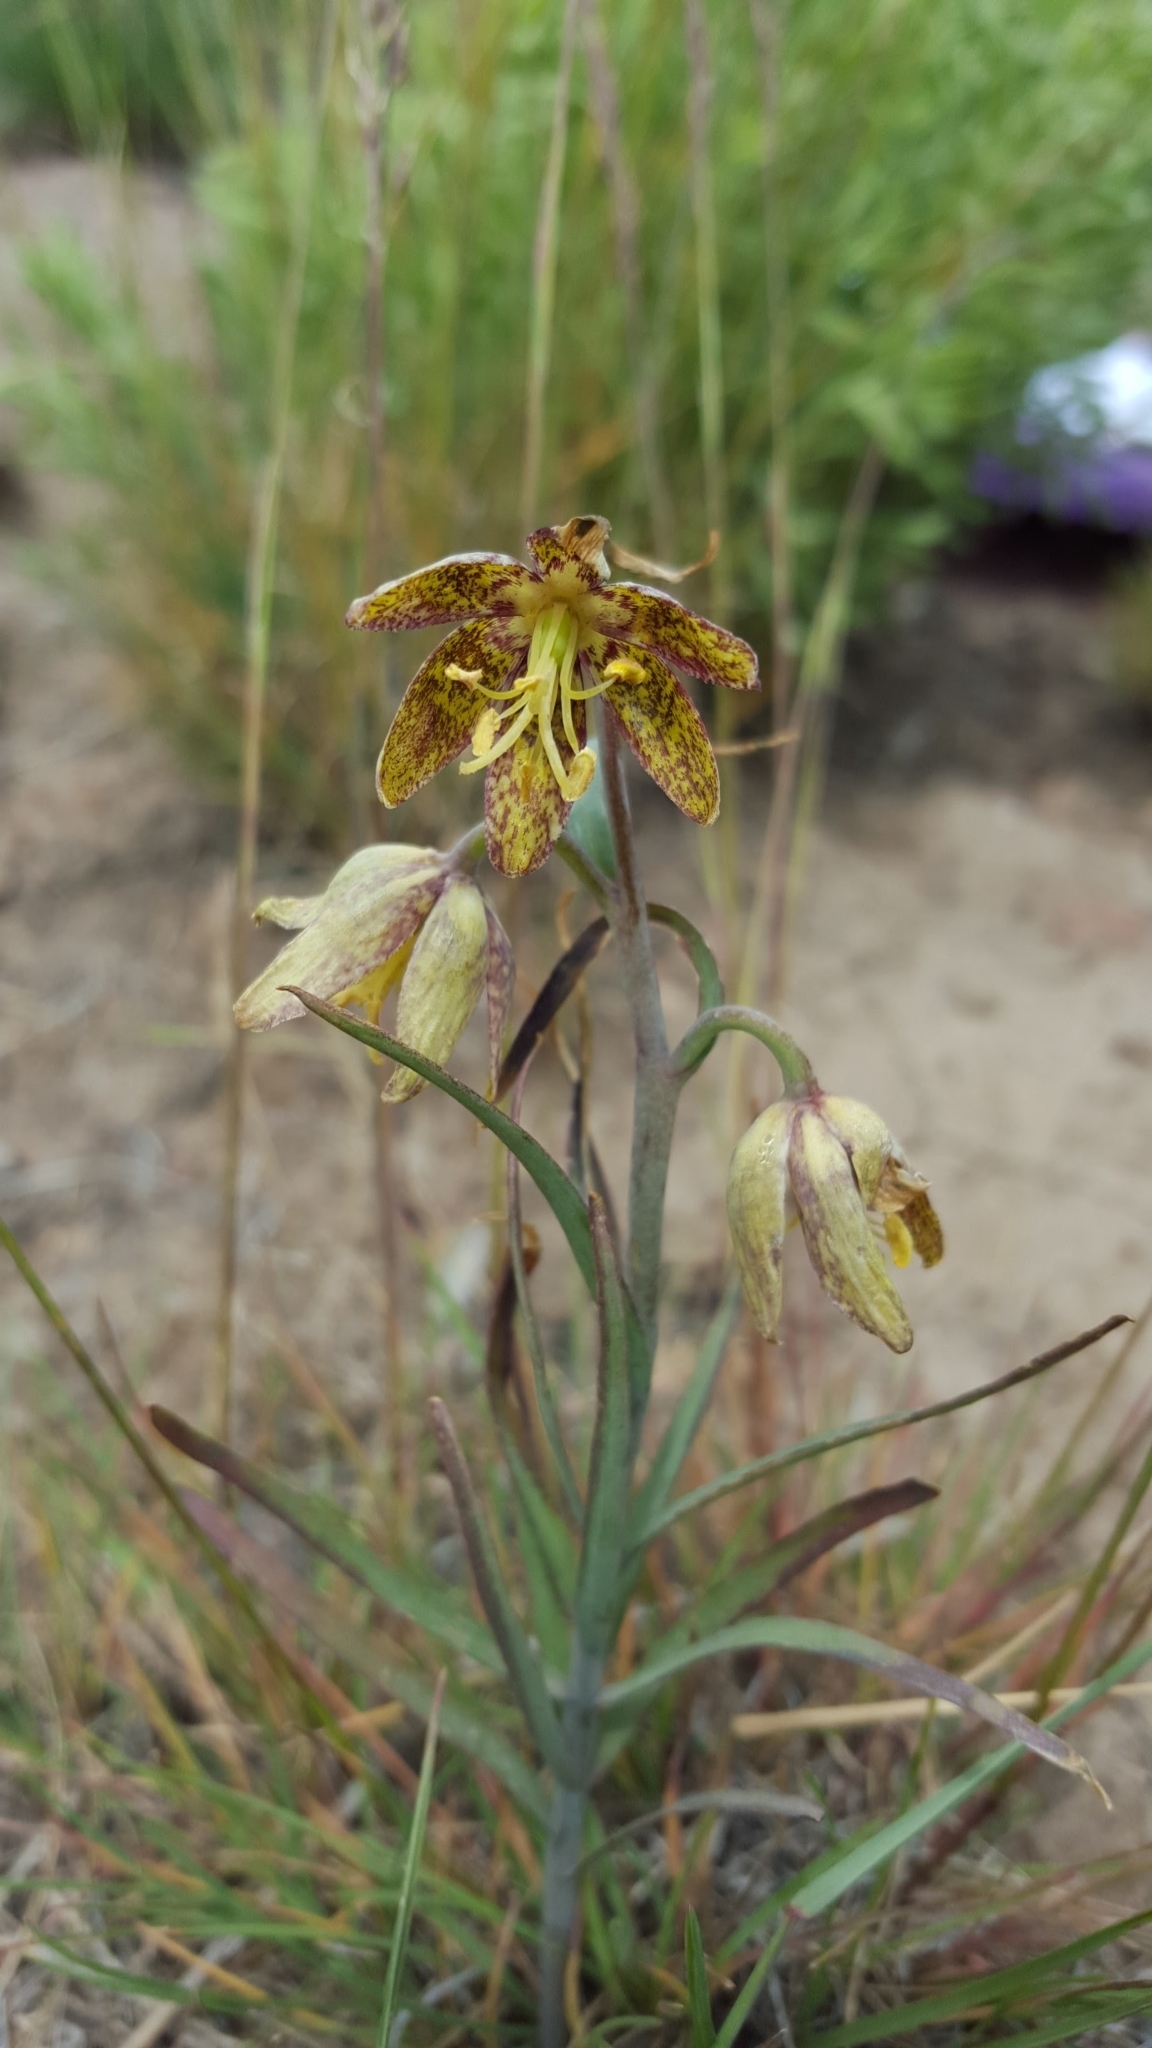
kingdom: Plantae
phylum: Tracheophyta
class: Liliopsida
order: Liliales
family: Liliaceae
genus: Fritillaria
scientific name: Fritillaria atropurpurea
